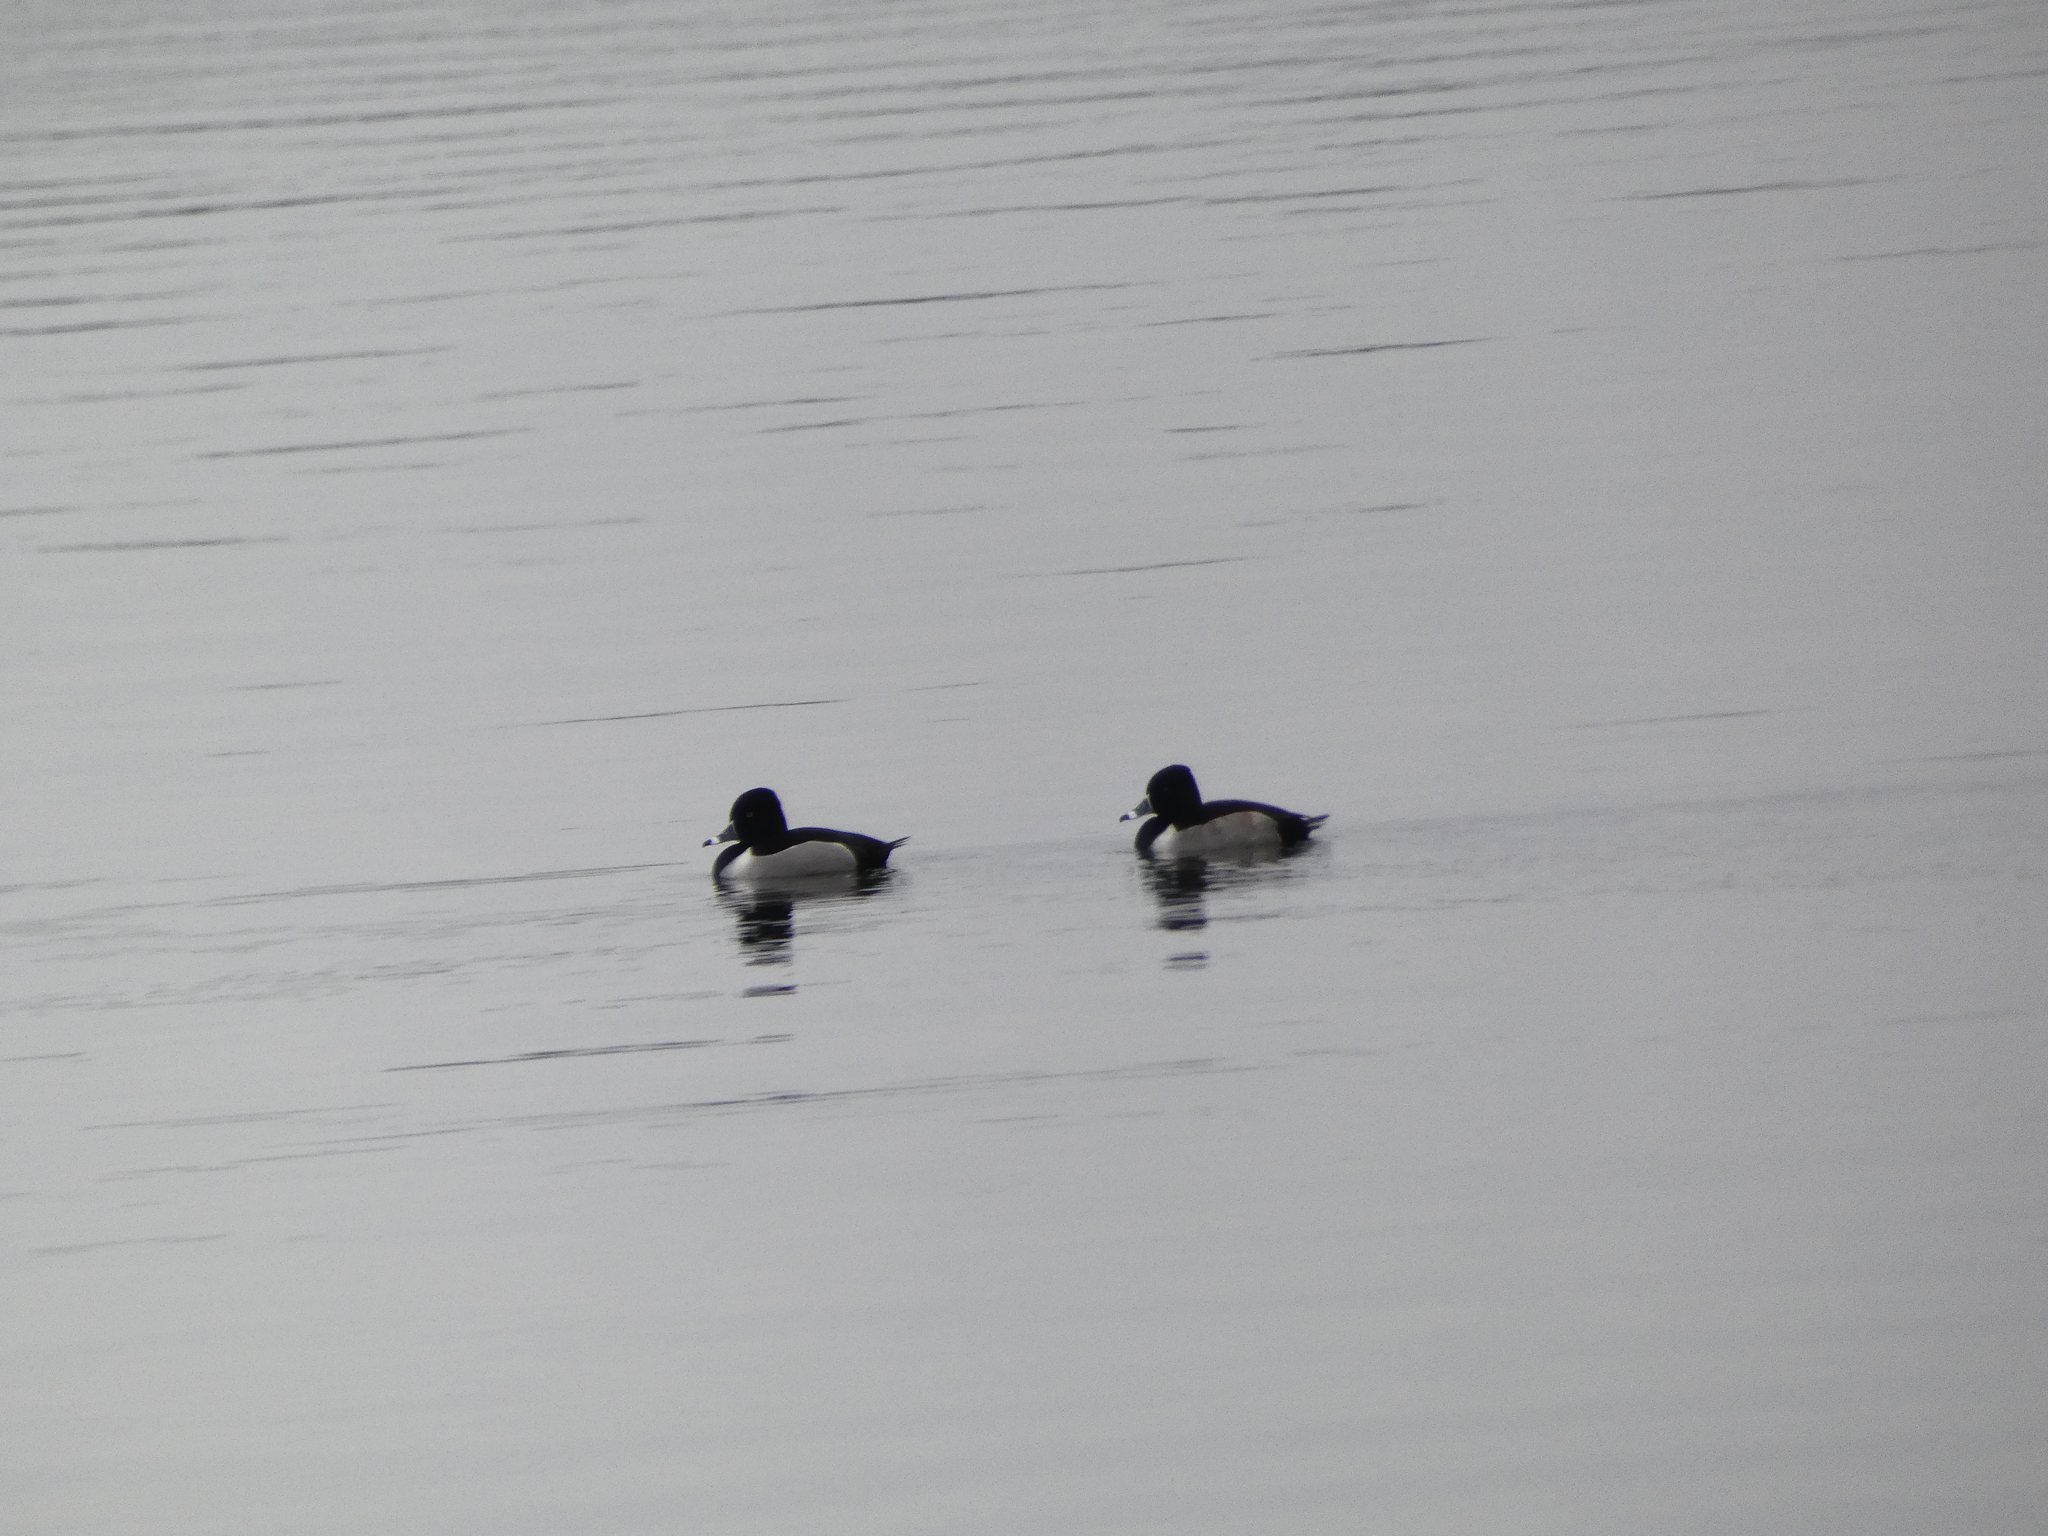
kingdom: Animalia
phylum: Chordata
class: Aves
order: Anseriformes
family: Anatidae
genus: Aythya
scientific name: Aythya collaris
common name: Ring-necked duck
